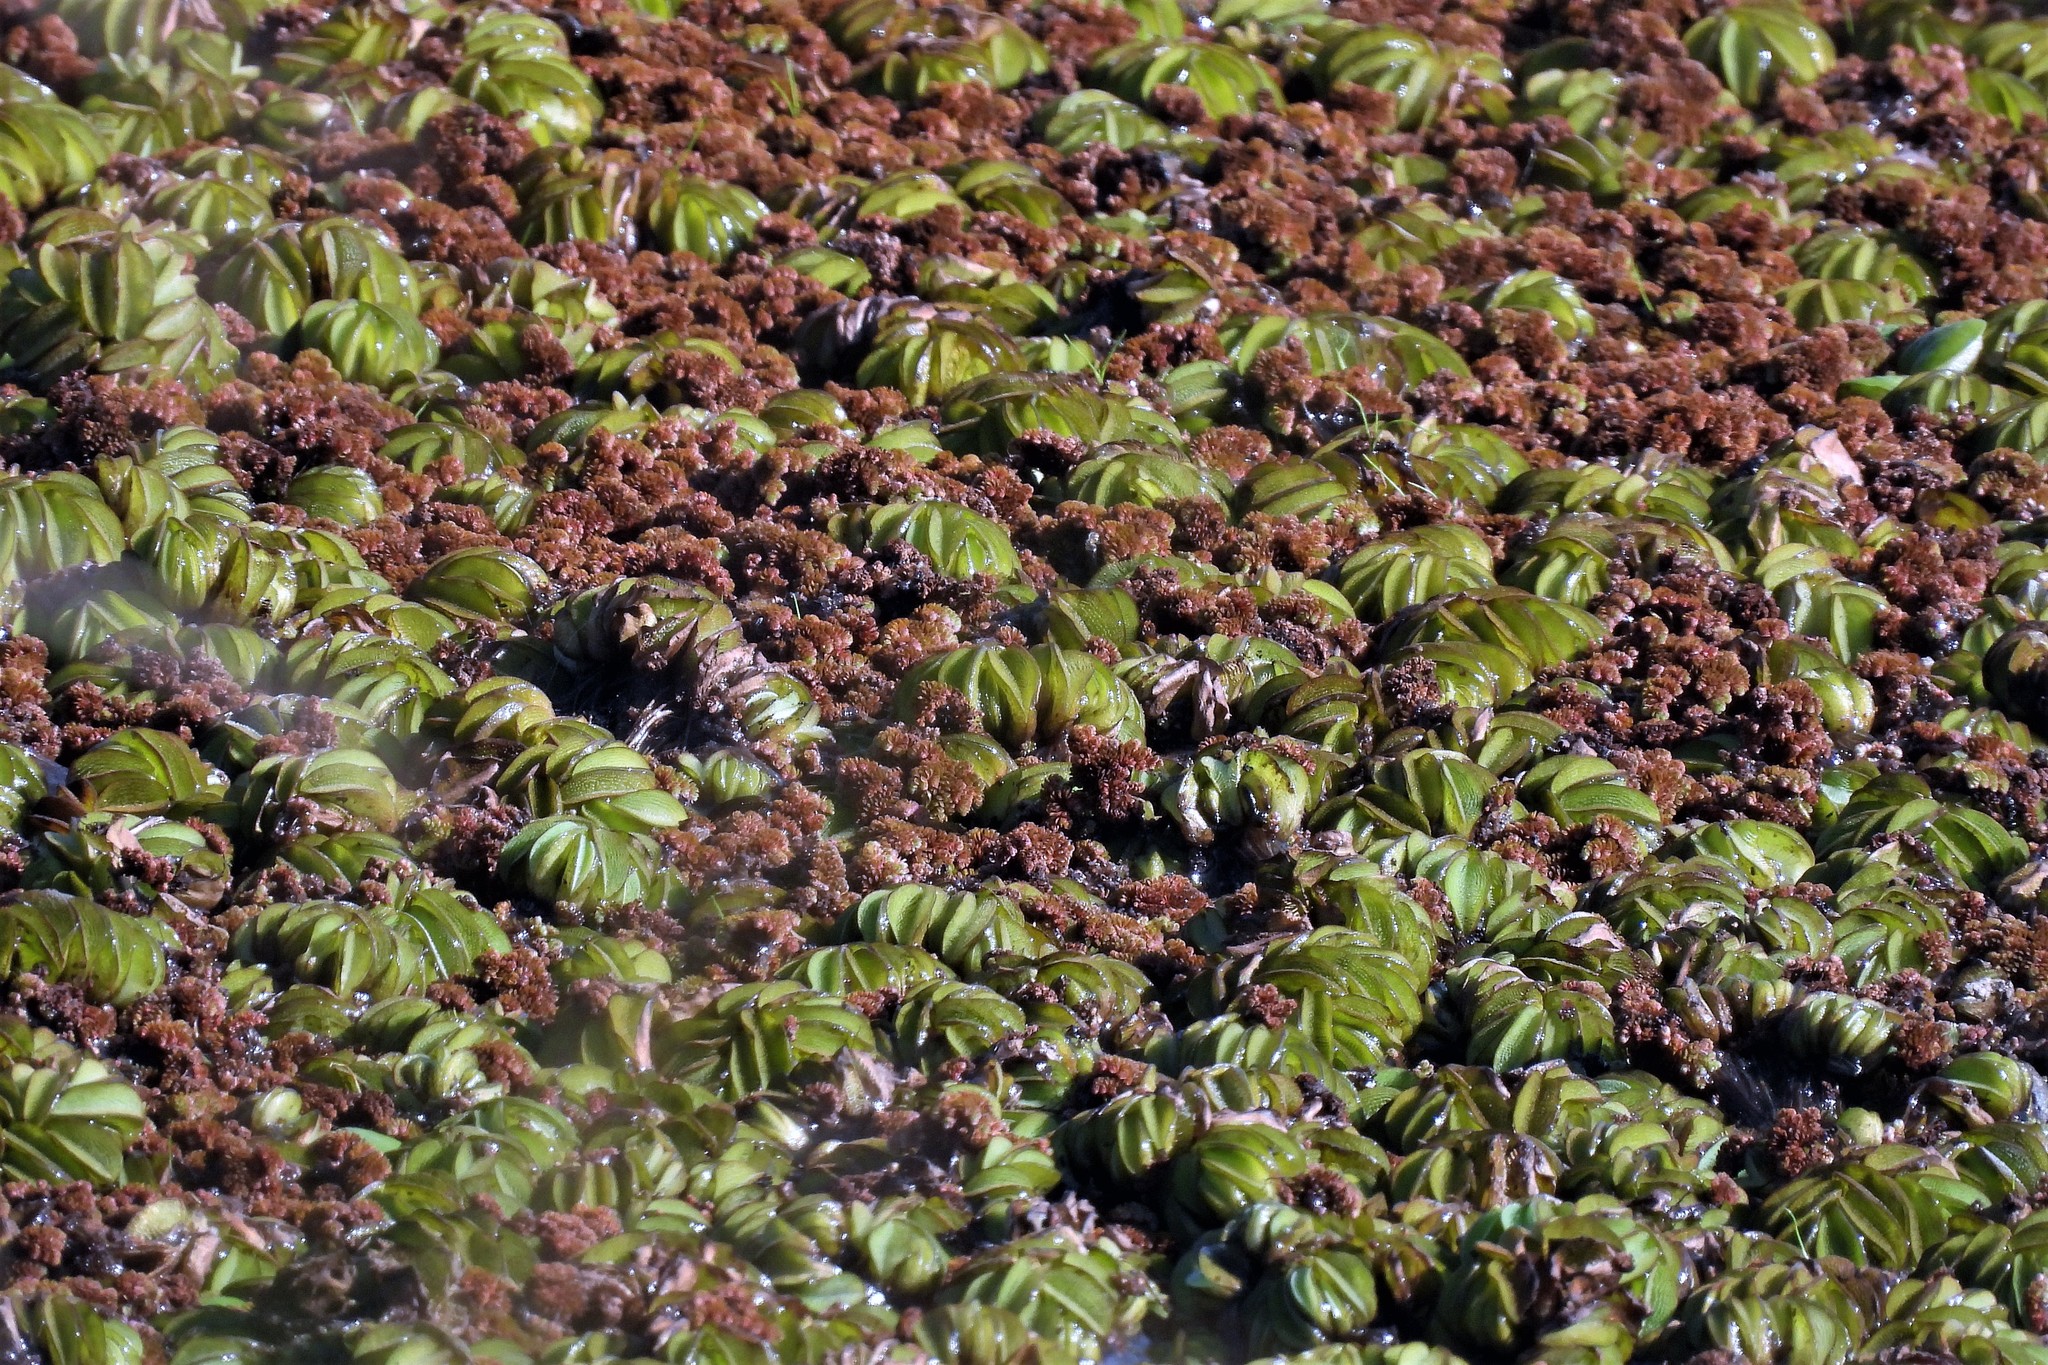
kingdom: Plantae
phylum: Tracheophyta
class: Polypodiopsida
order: Salviniales
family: Salviniaceae
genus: Salvinia
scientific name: Salvinia molesta
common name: Kariba weed
